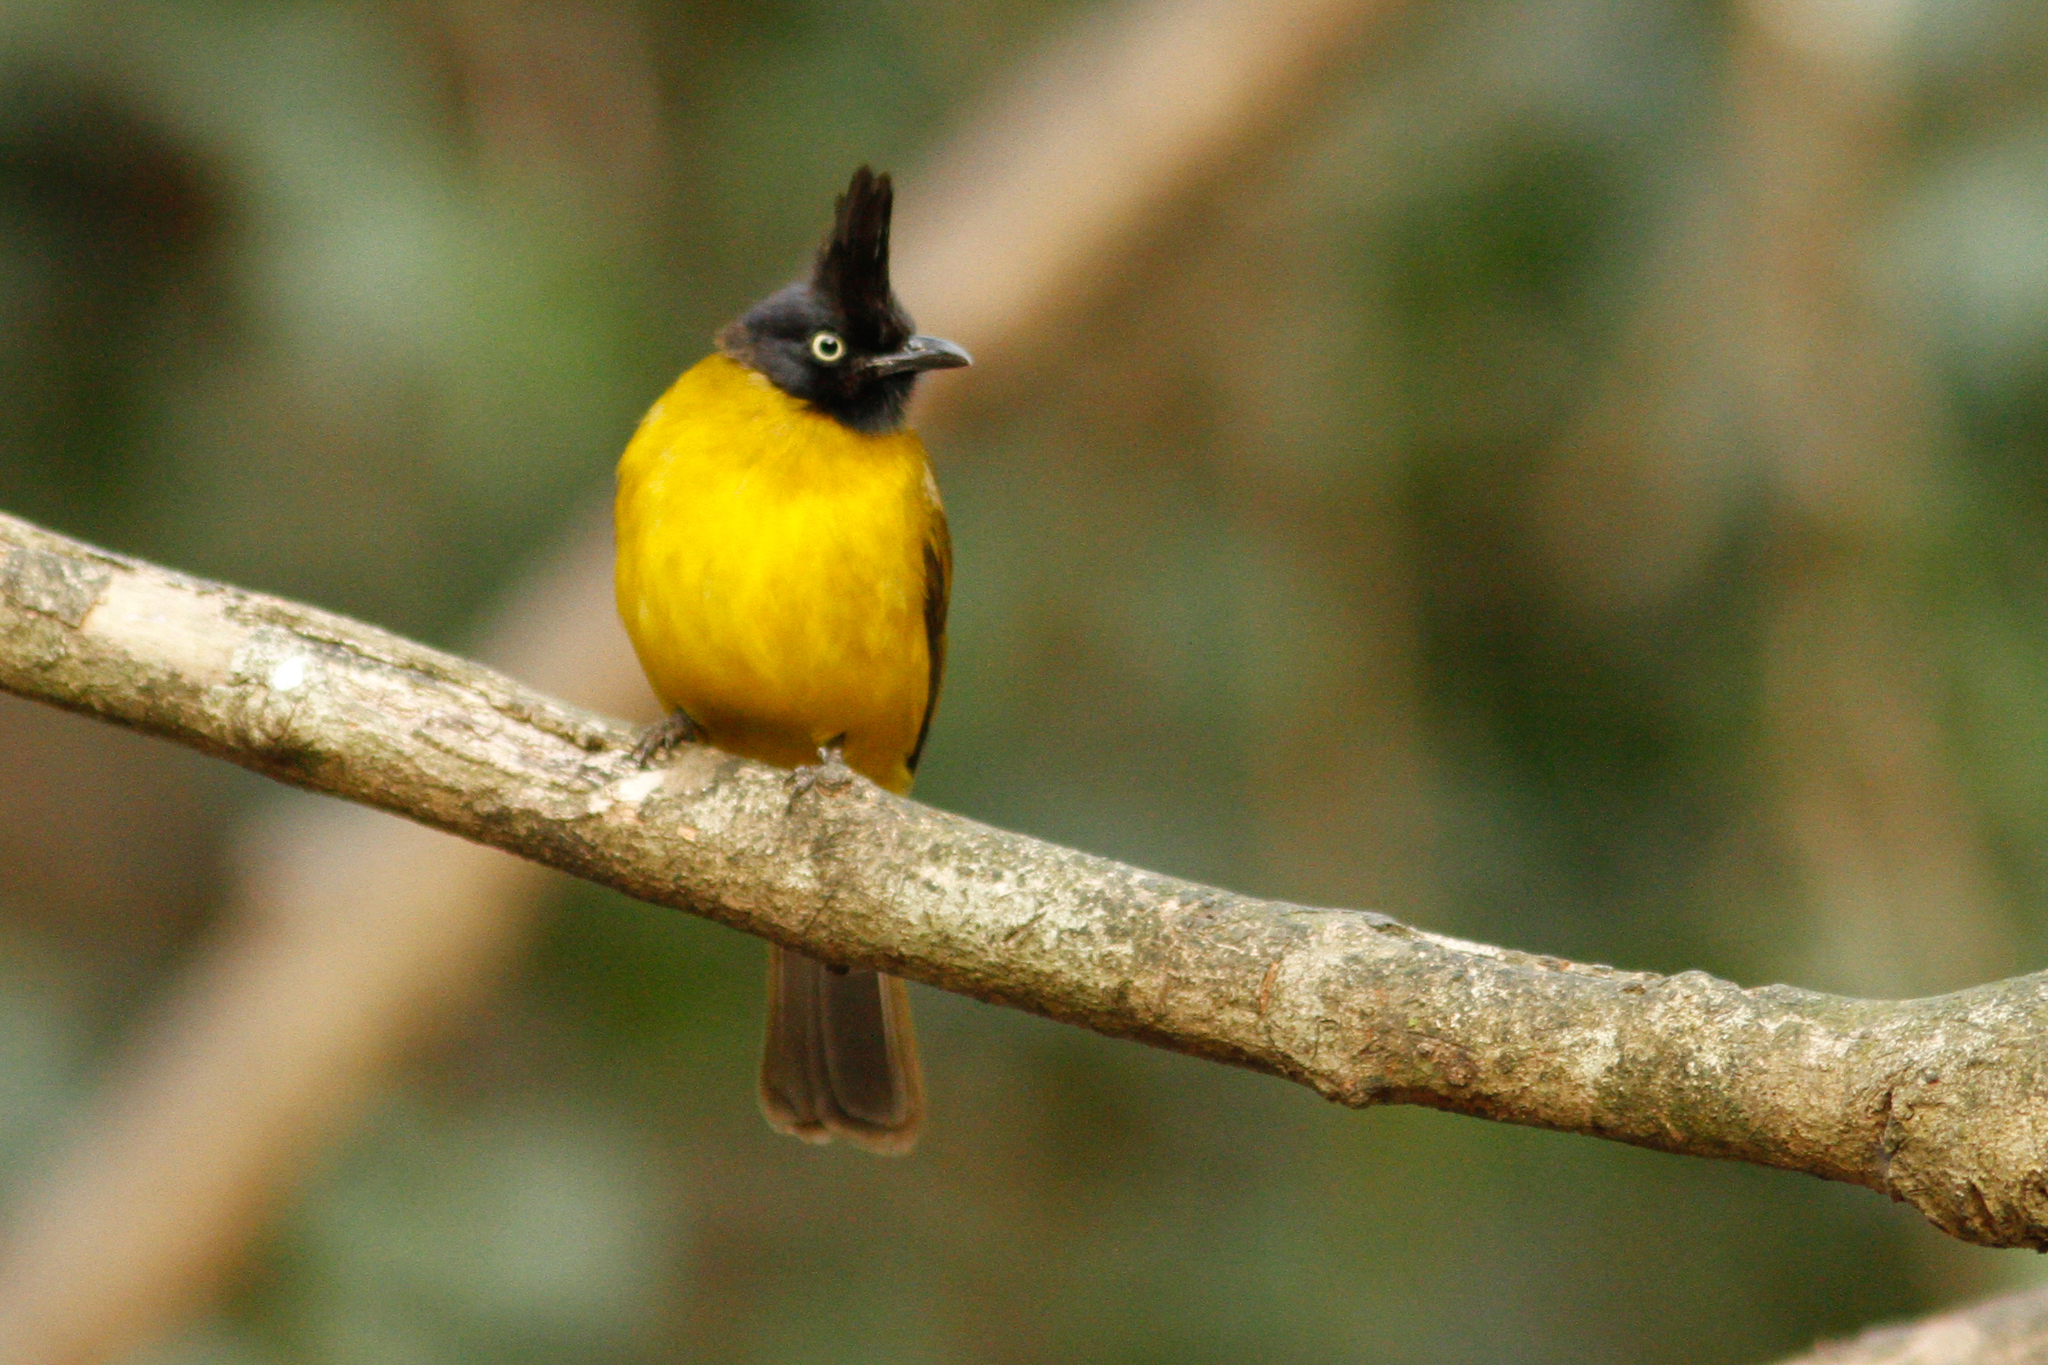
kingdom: Animalia
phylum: Chordata
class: Aves
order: Passeriformes
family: Pycnonotidae
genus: Pycnonotus
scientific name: Pycnonotus flaviventris
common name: Black-crested bulbul
